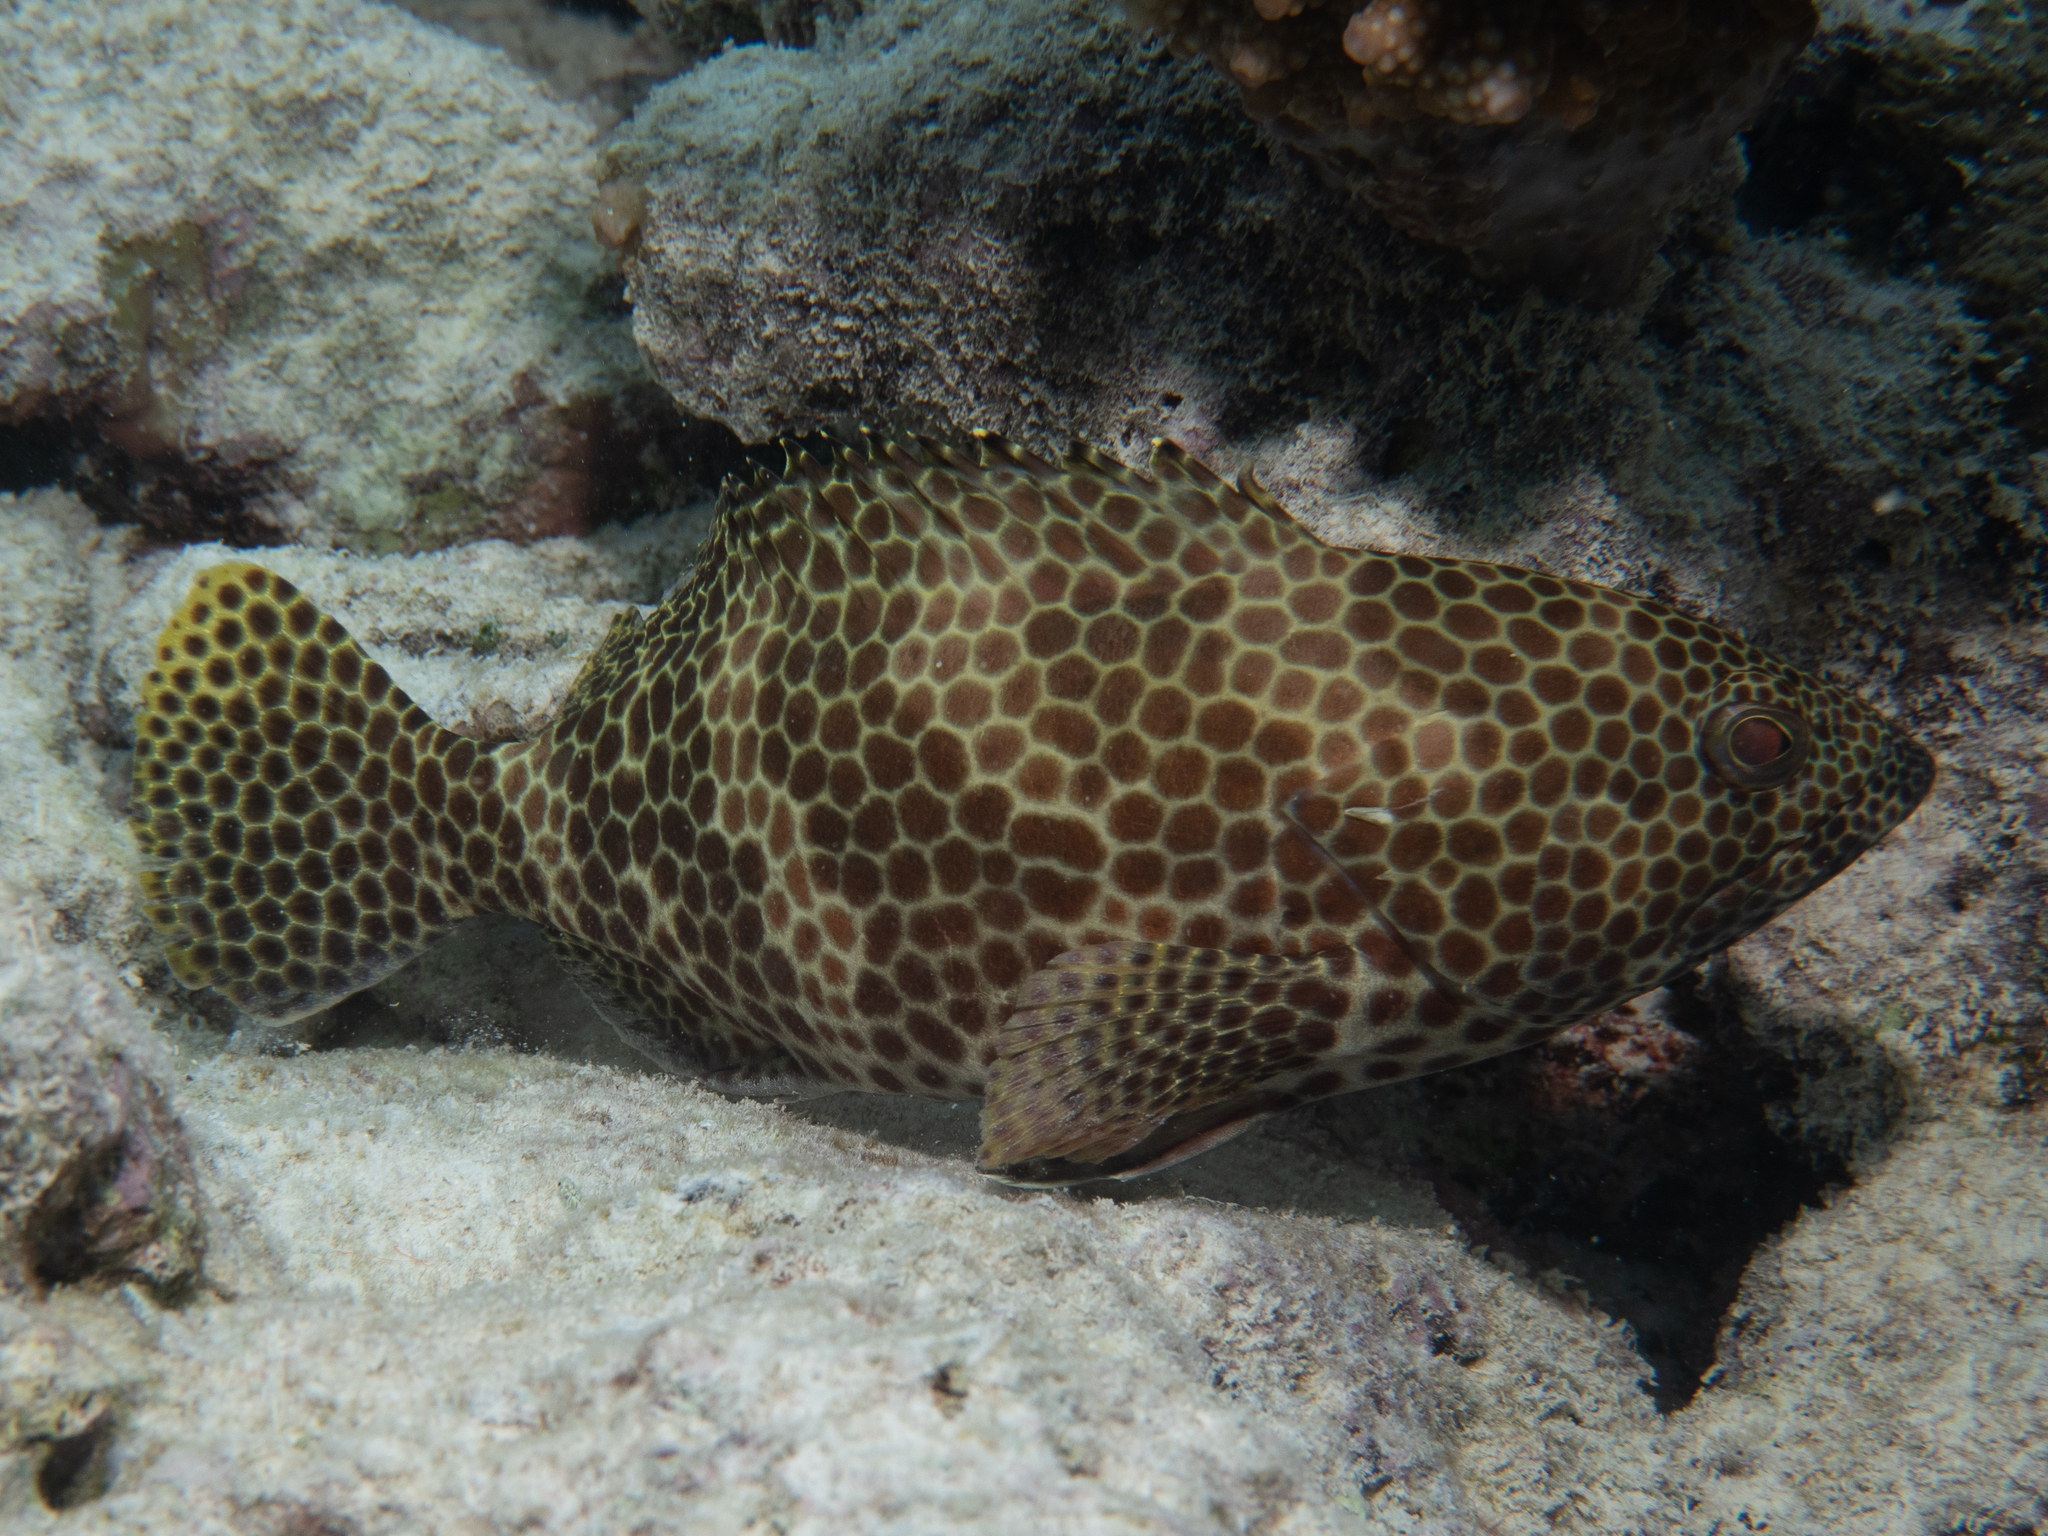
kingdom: Animalia
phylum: Chordata
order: Perciformes
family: Serranidae
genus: Epinephelus
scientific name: Epinephelus merra
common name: Honeycomb grouper
